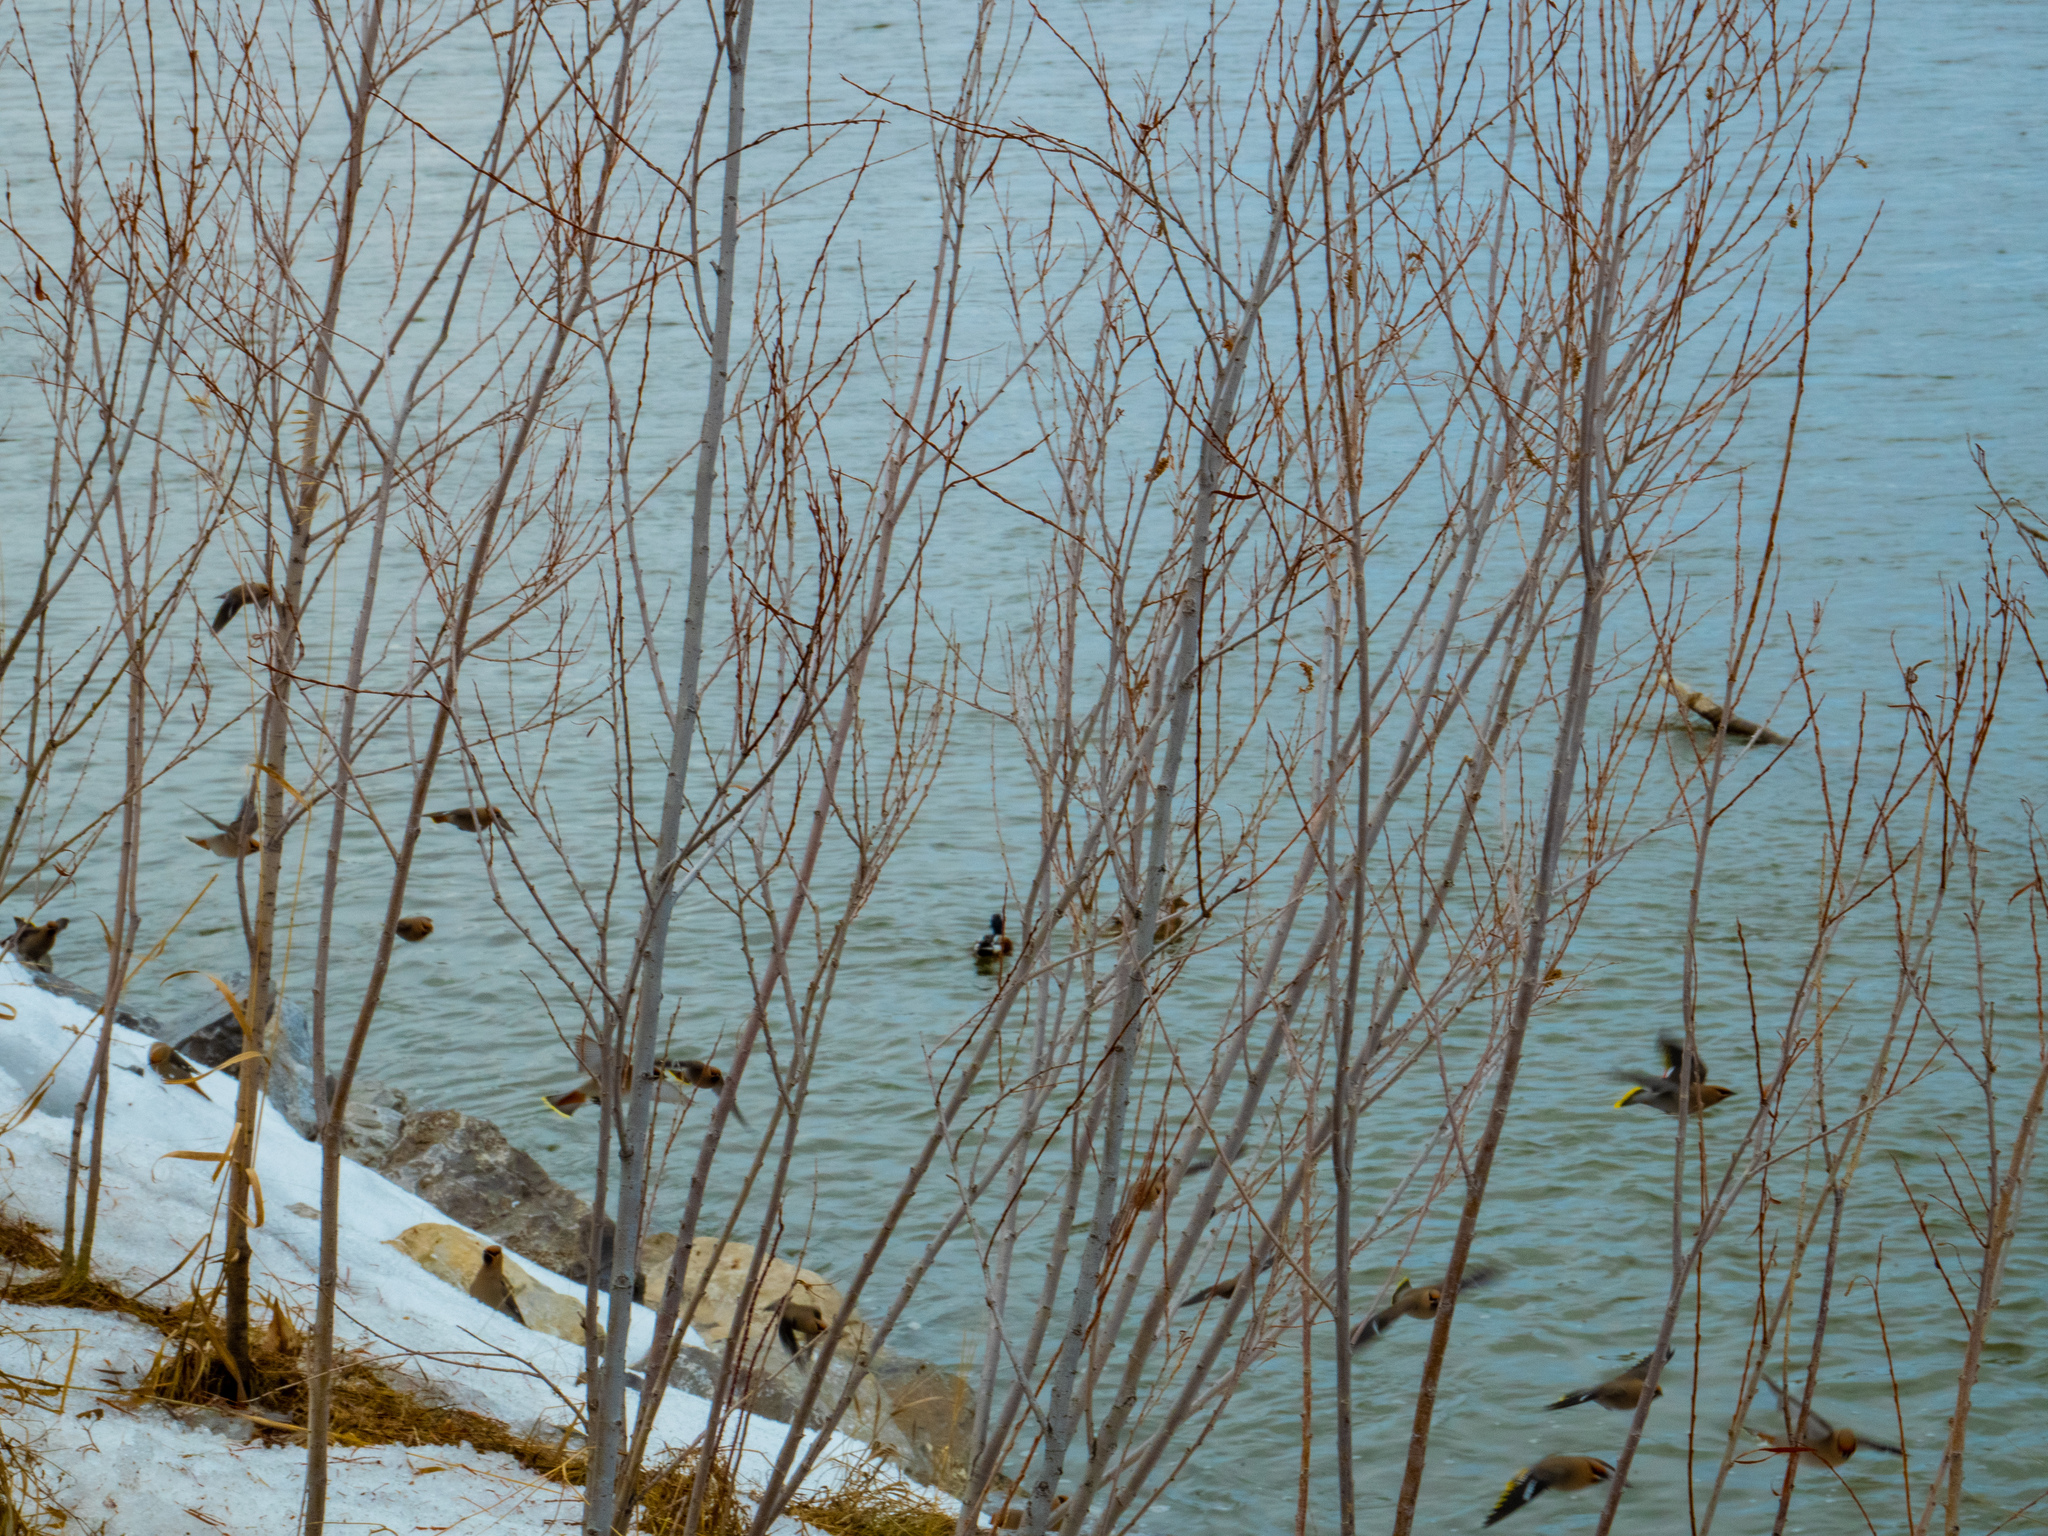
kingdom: Animalia
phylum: Chordata
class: Aves
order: Passeriformes
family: Bombycillidae
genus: Bombycilla
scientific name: Bombycilla garrulus
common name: Bohemian waxwing
